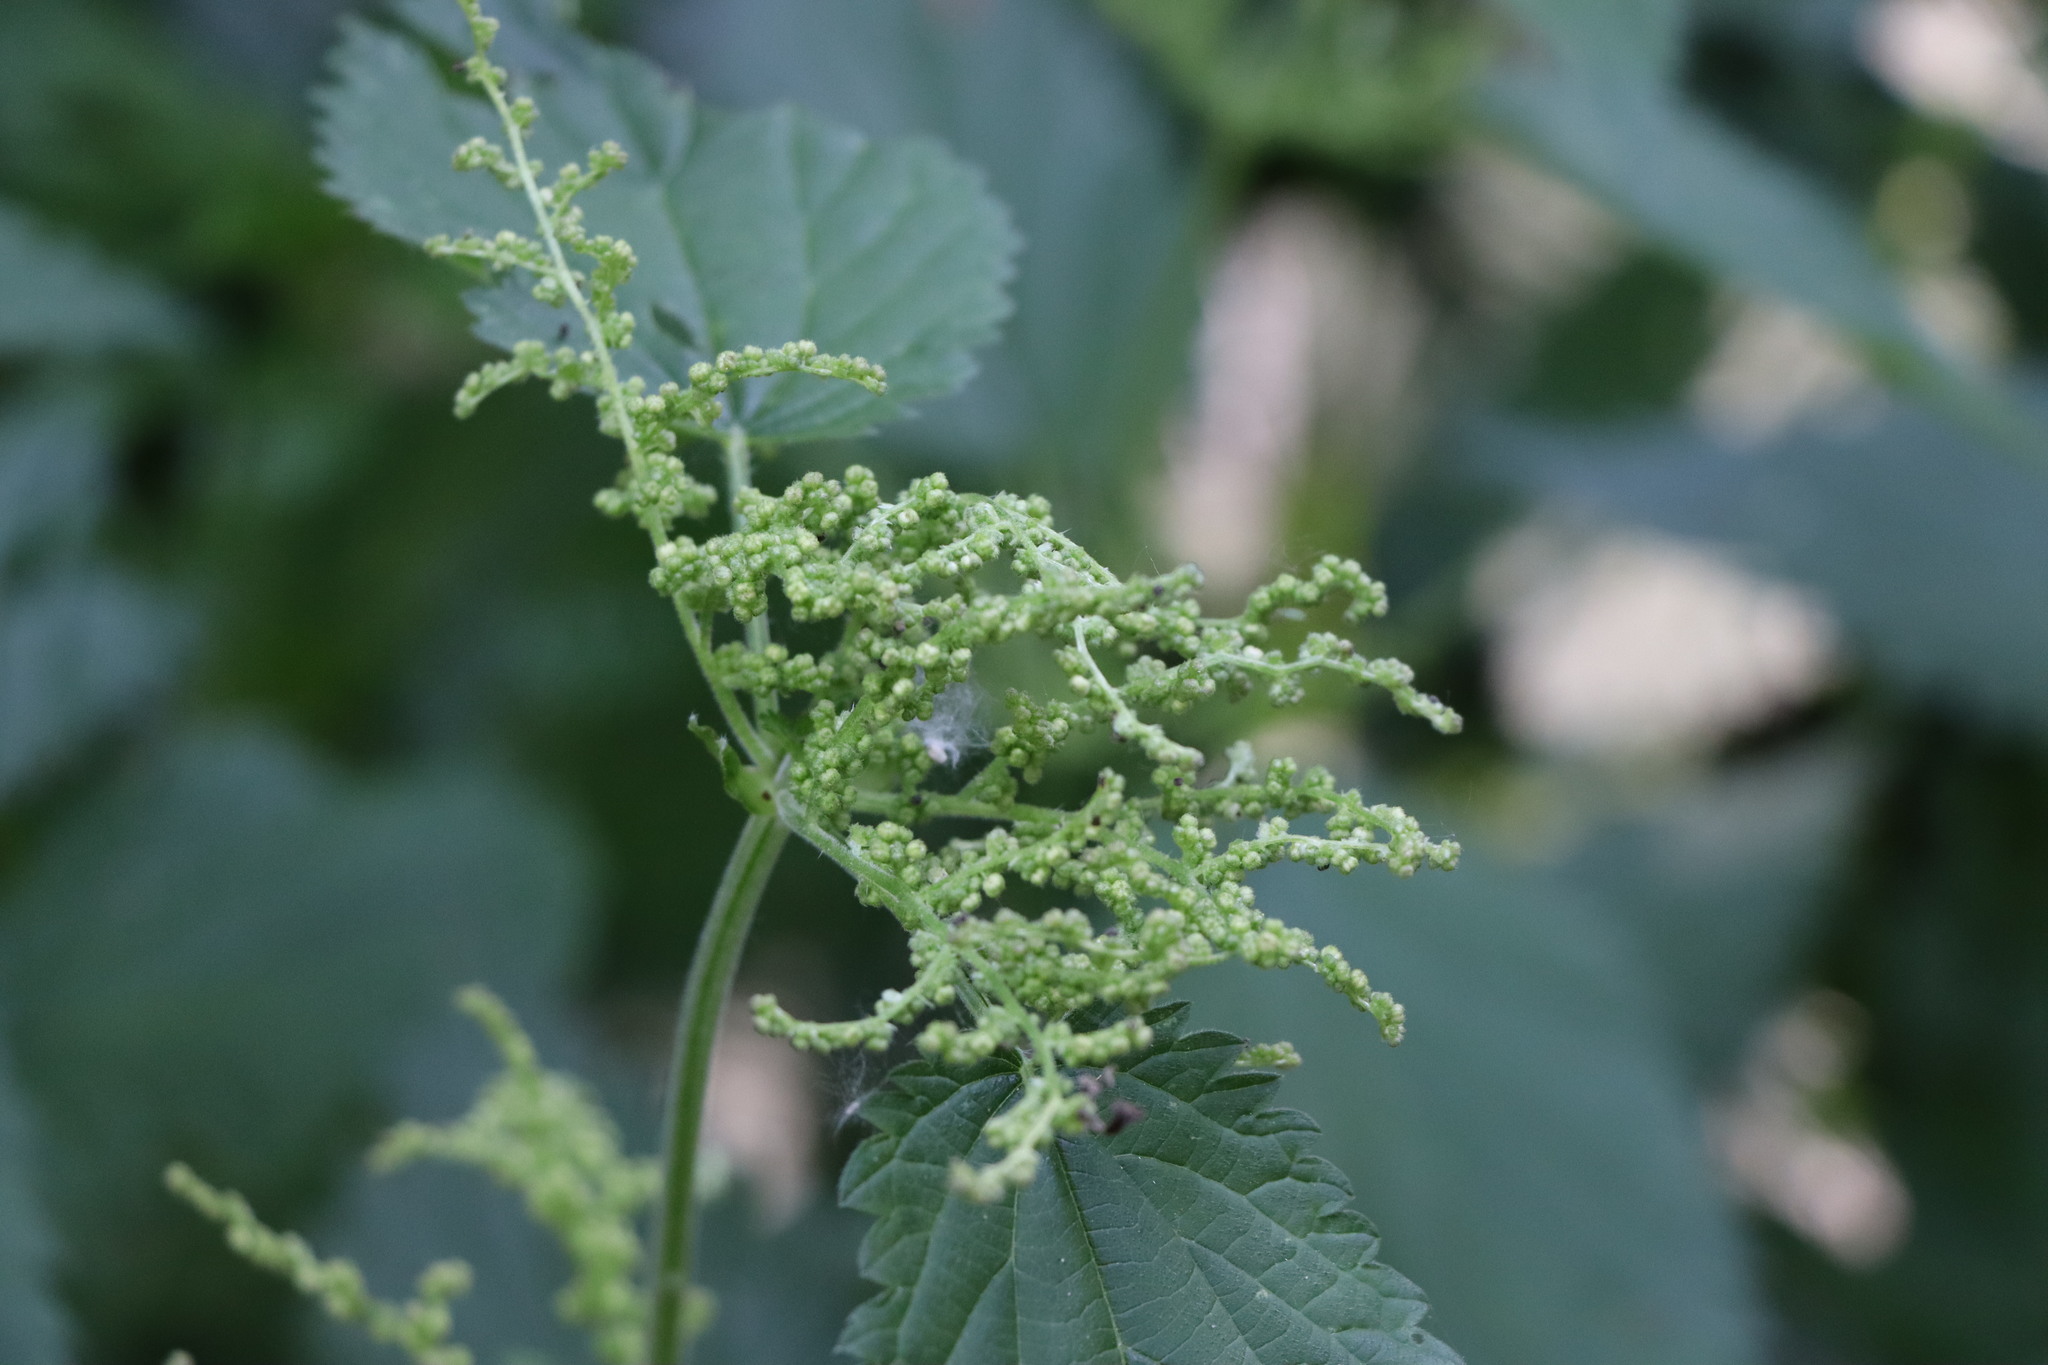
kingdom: Plantae
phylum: Tracheophyta
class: Magnoliopsida
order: Rosales
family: Urticaceae
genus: Urtica
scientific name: Urtica dioica
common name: Common nettle
